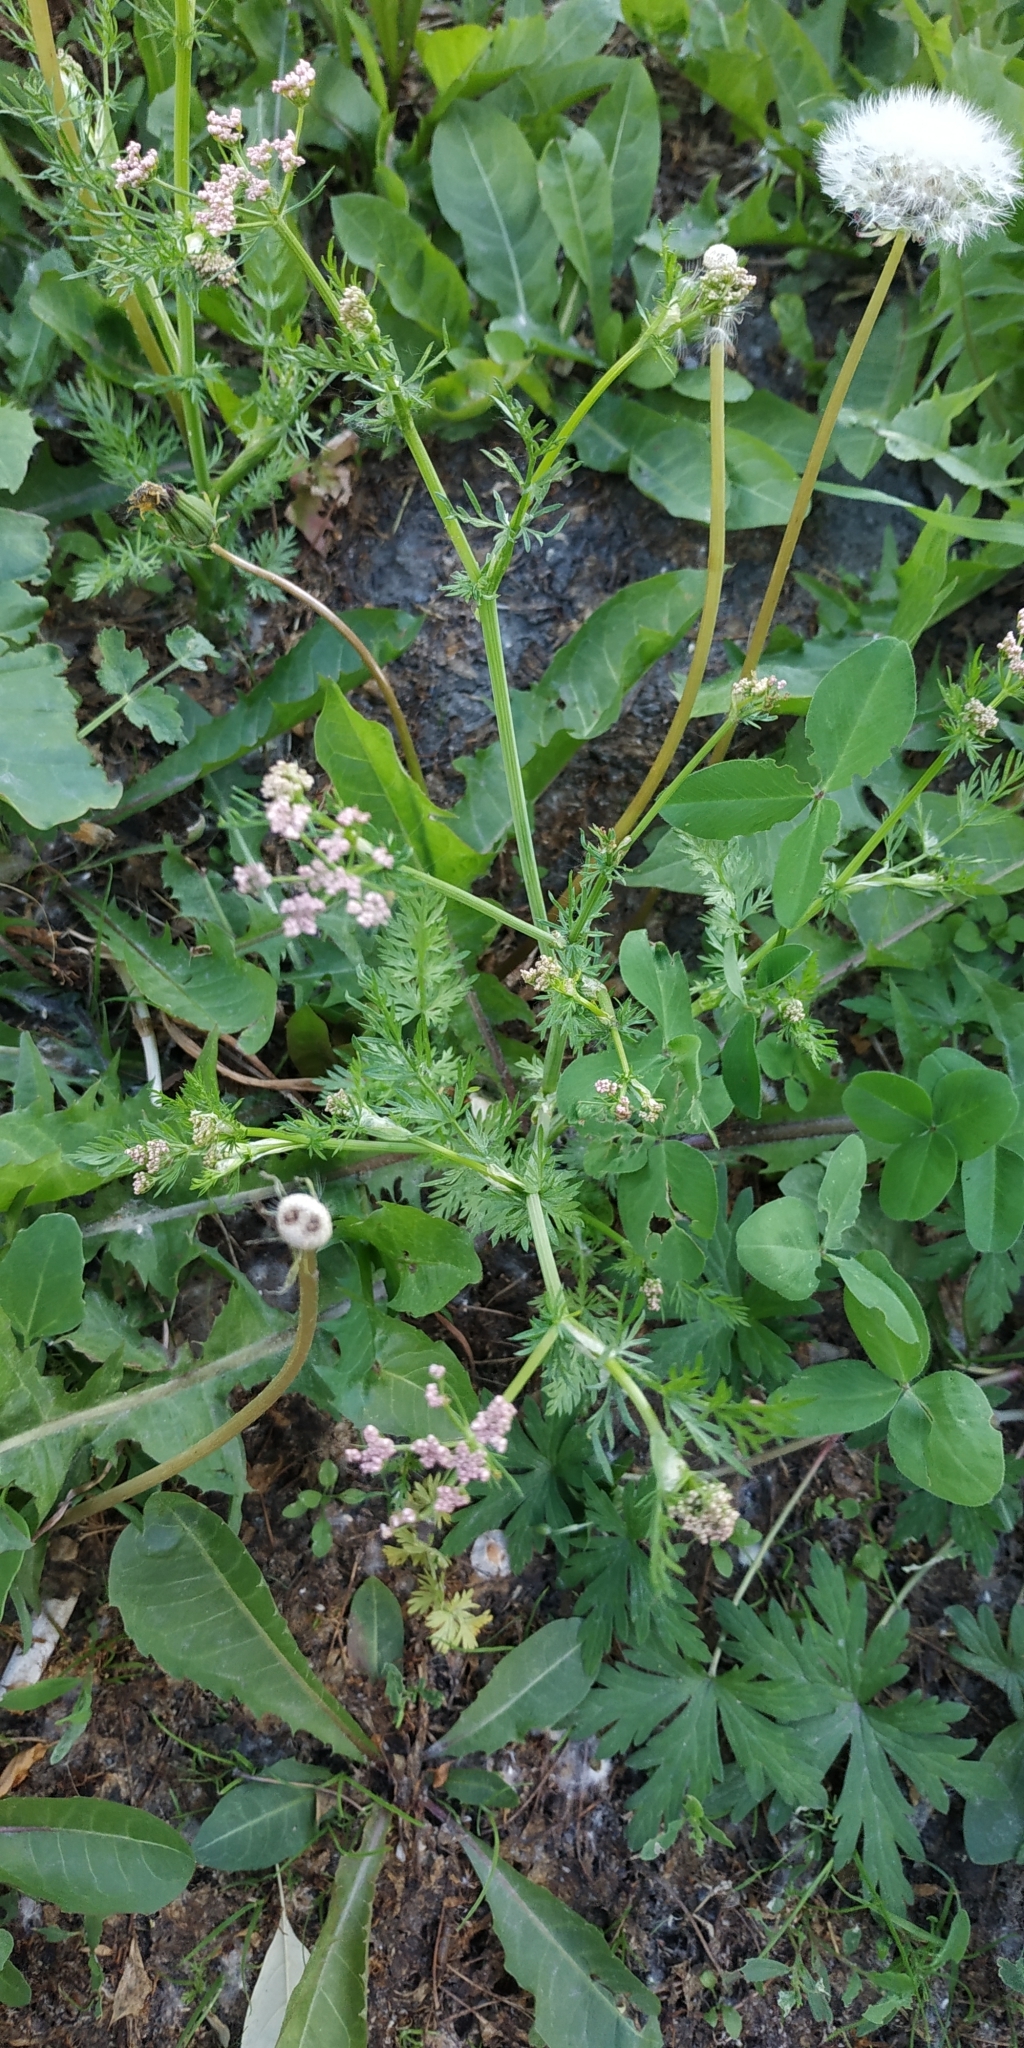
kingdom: Plantae
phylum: Tracheophyta
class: Magnoliopsida
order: Apiales
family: Apiaceae
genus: Carum
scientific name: Carum carvi
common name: Caraway
